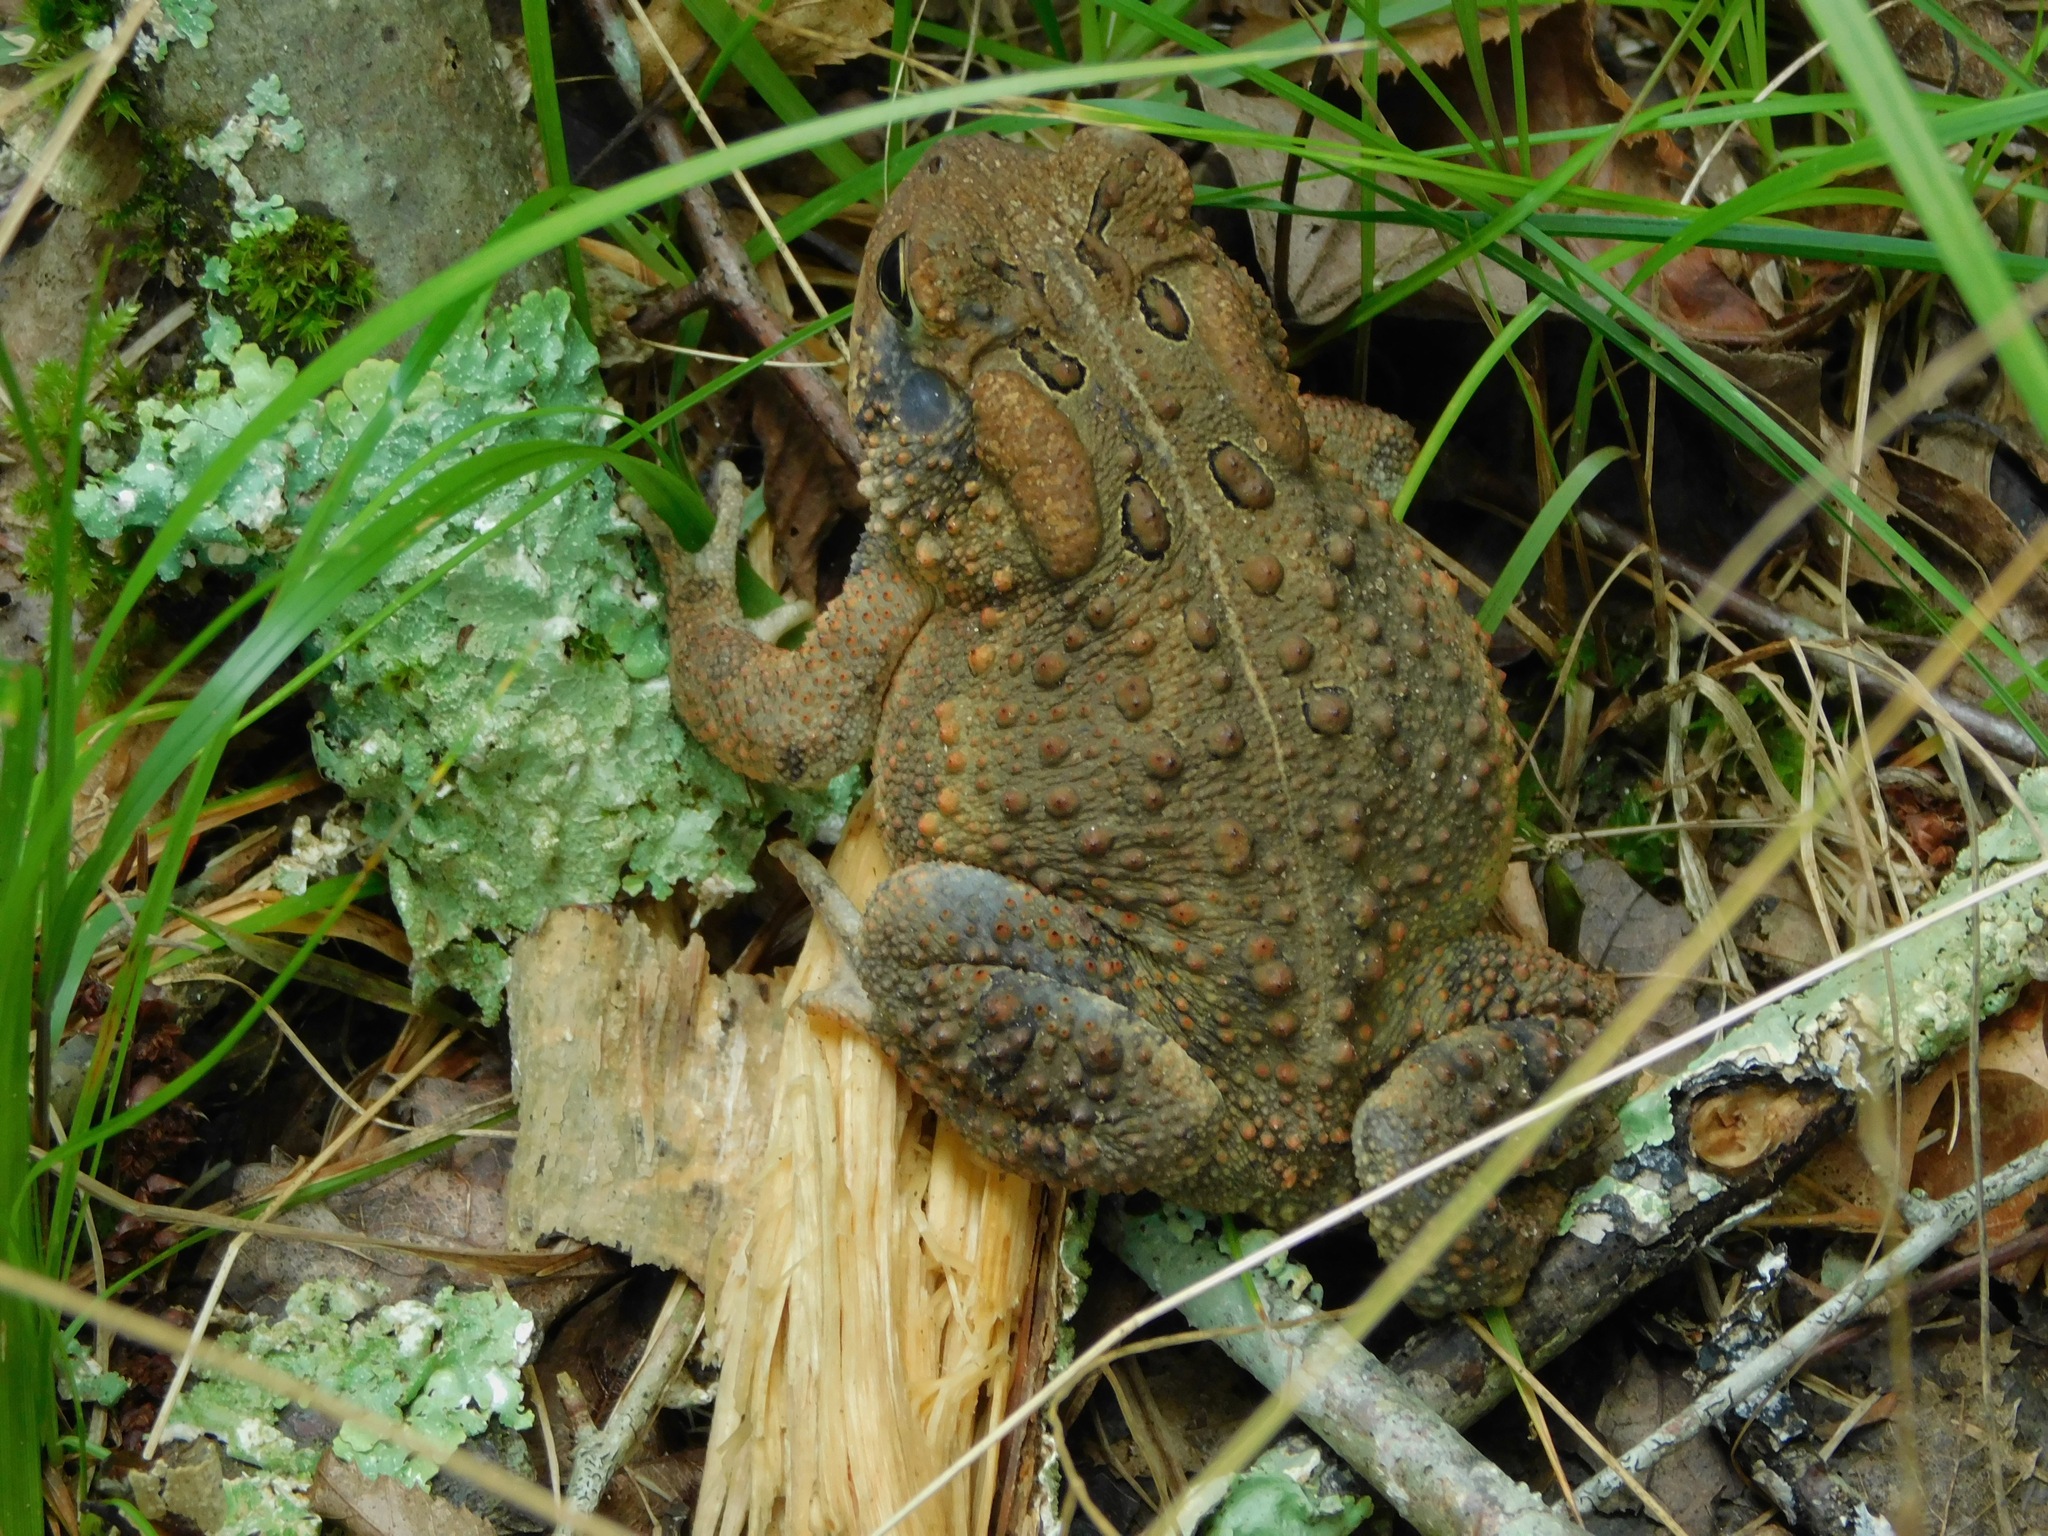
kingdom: Animalia
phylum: Chordata
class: Amphibia
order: Anura
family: Bufonidae
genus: Anaxyrus
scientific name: Anaxyrus americanus
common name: American toad
